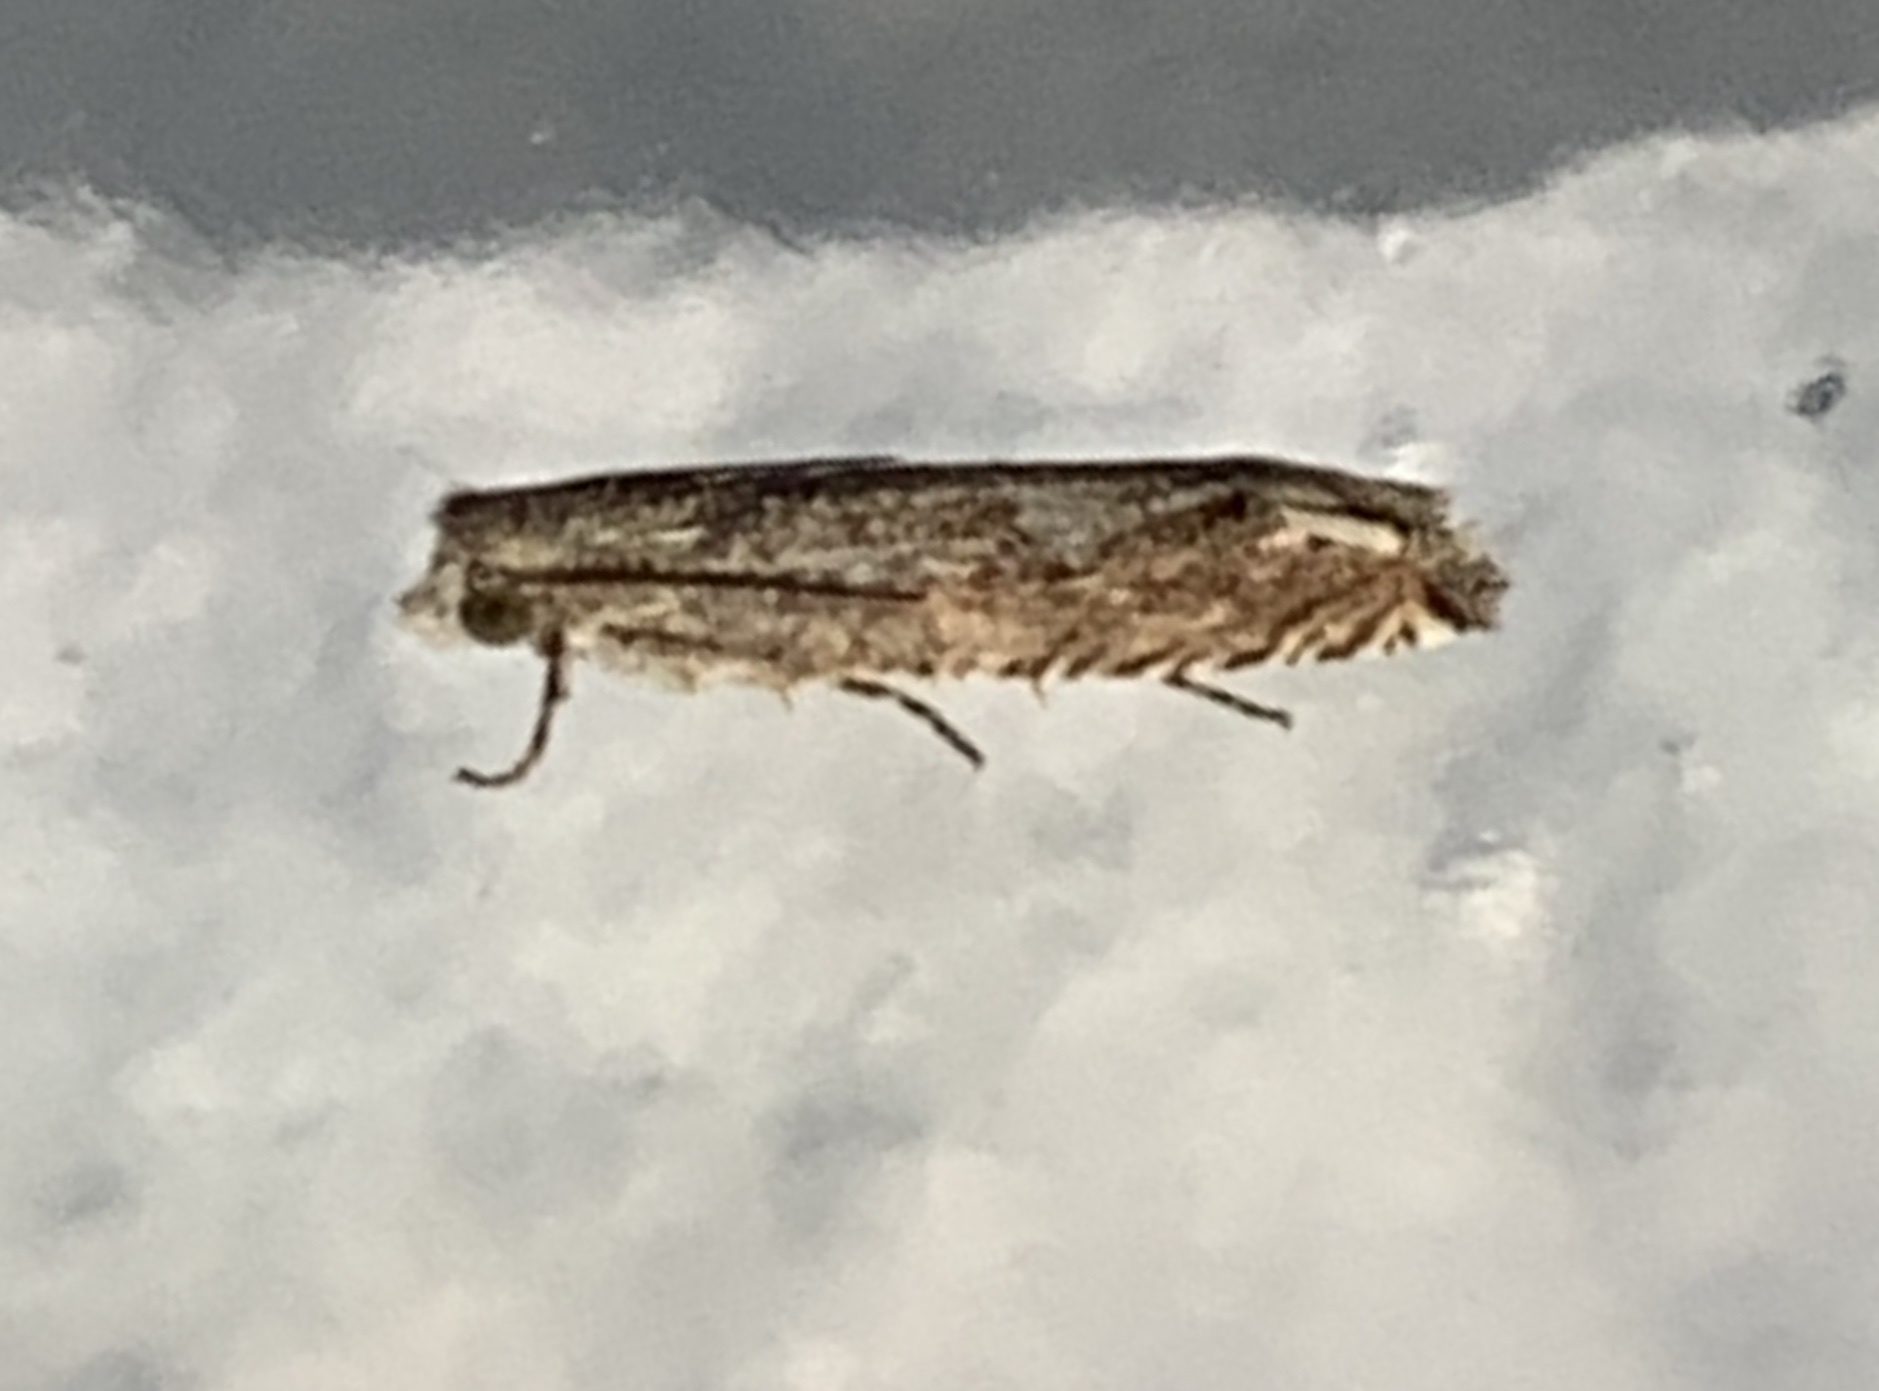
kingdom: Animalia
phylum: Arthropoda
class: Insecta
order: Lepidoptera
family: Tortricidae
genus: Epiblema
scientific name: Epiblema strenuana
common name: Ragweed borer moth
